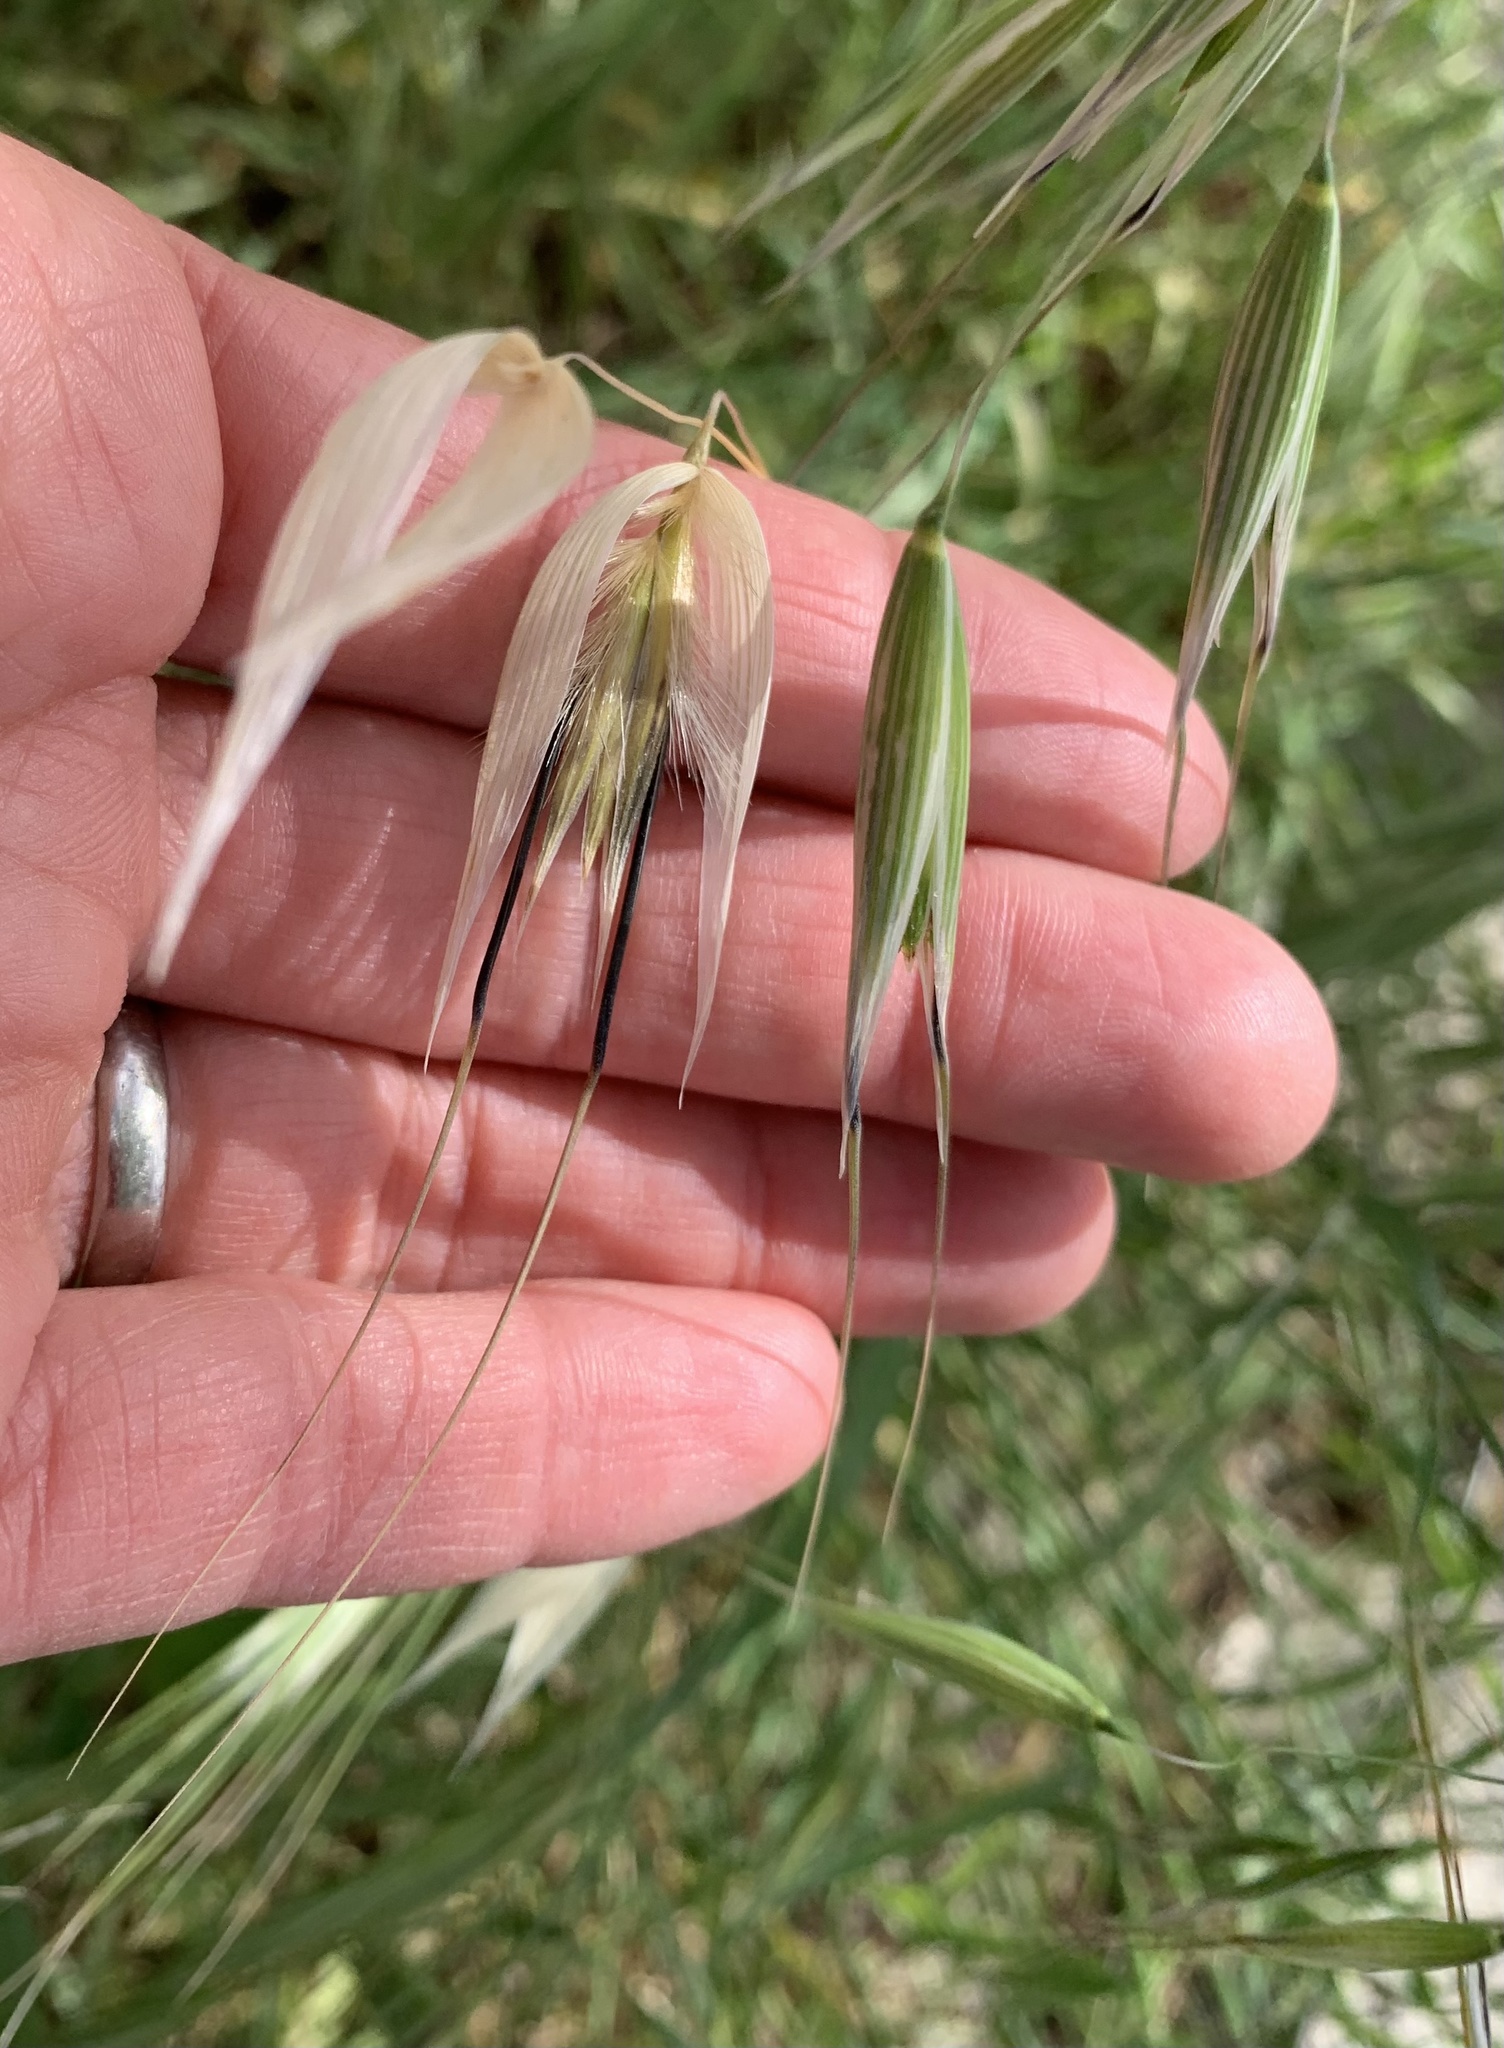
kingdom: Plantae
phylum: Tracheophyta
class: Liliopsida
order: Poales
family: Poaceae
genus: Avena
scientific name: Avena sterilis
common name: Animated oat
